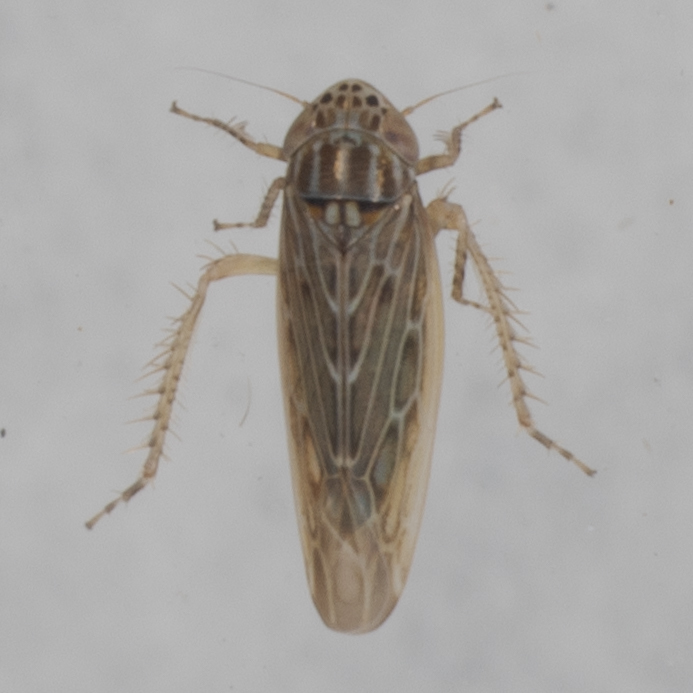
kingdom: Animalia
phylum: Arthropoda
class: Insecta
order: Hemiptera
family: Cicadellidae
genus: Graminella
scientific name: Graminella sonora
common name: Lesser lawn leafhopper
